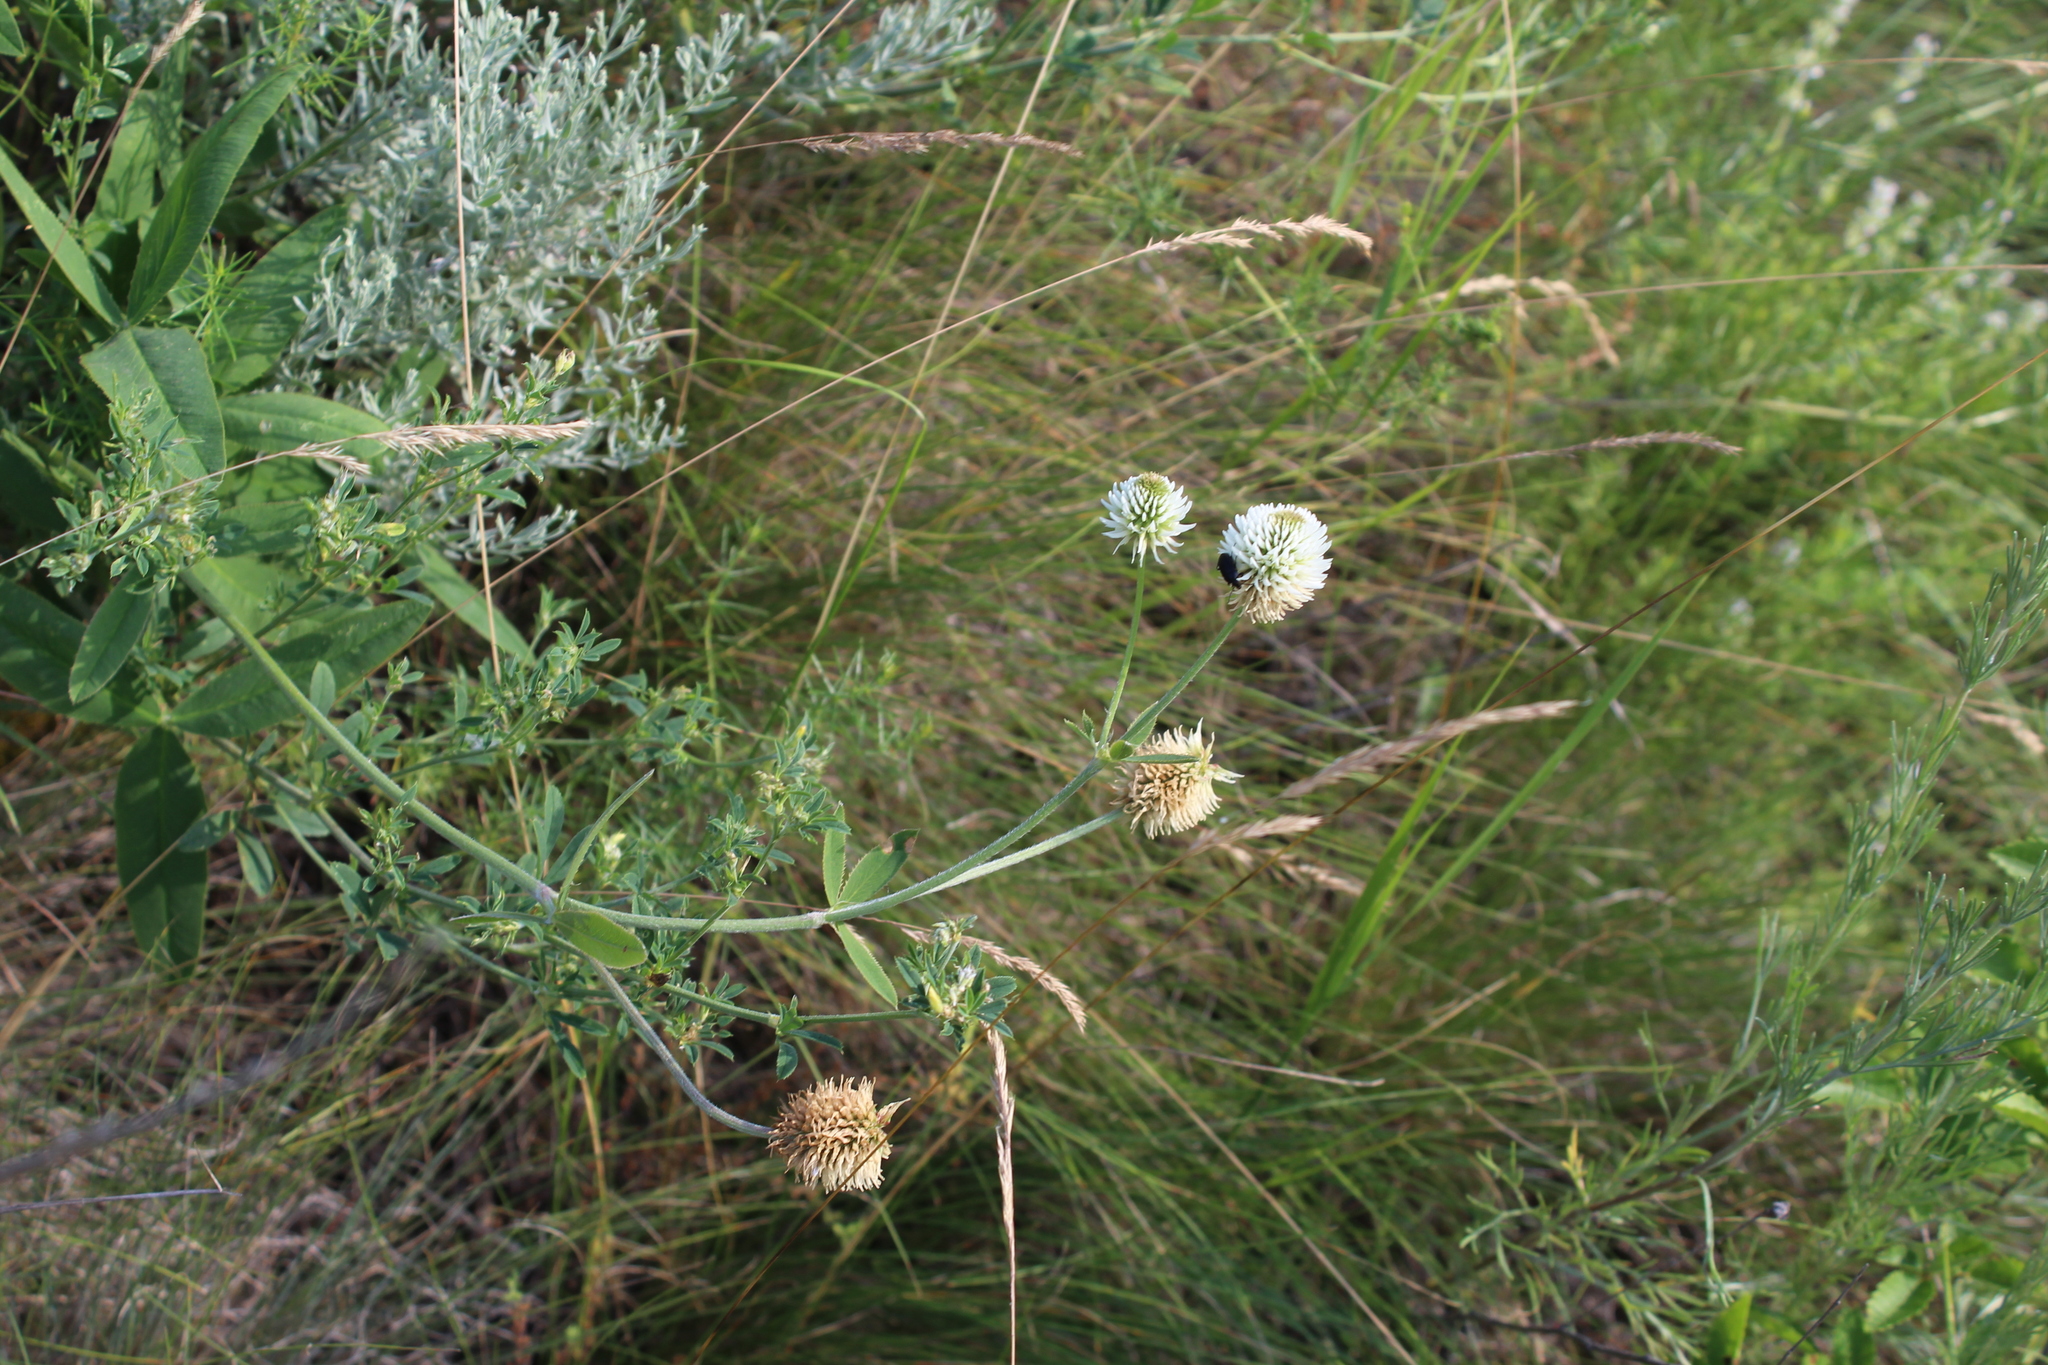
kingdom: Plantae
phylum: Tracheophyta
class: Magnoliopsida
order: Fabales
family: Fabaceae
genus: Trifolium
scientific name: Trifolium montanum
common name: Mountain clover
